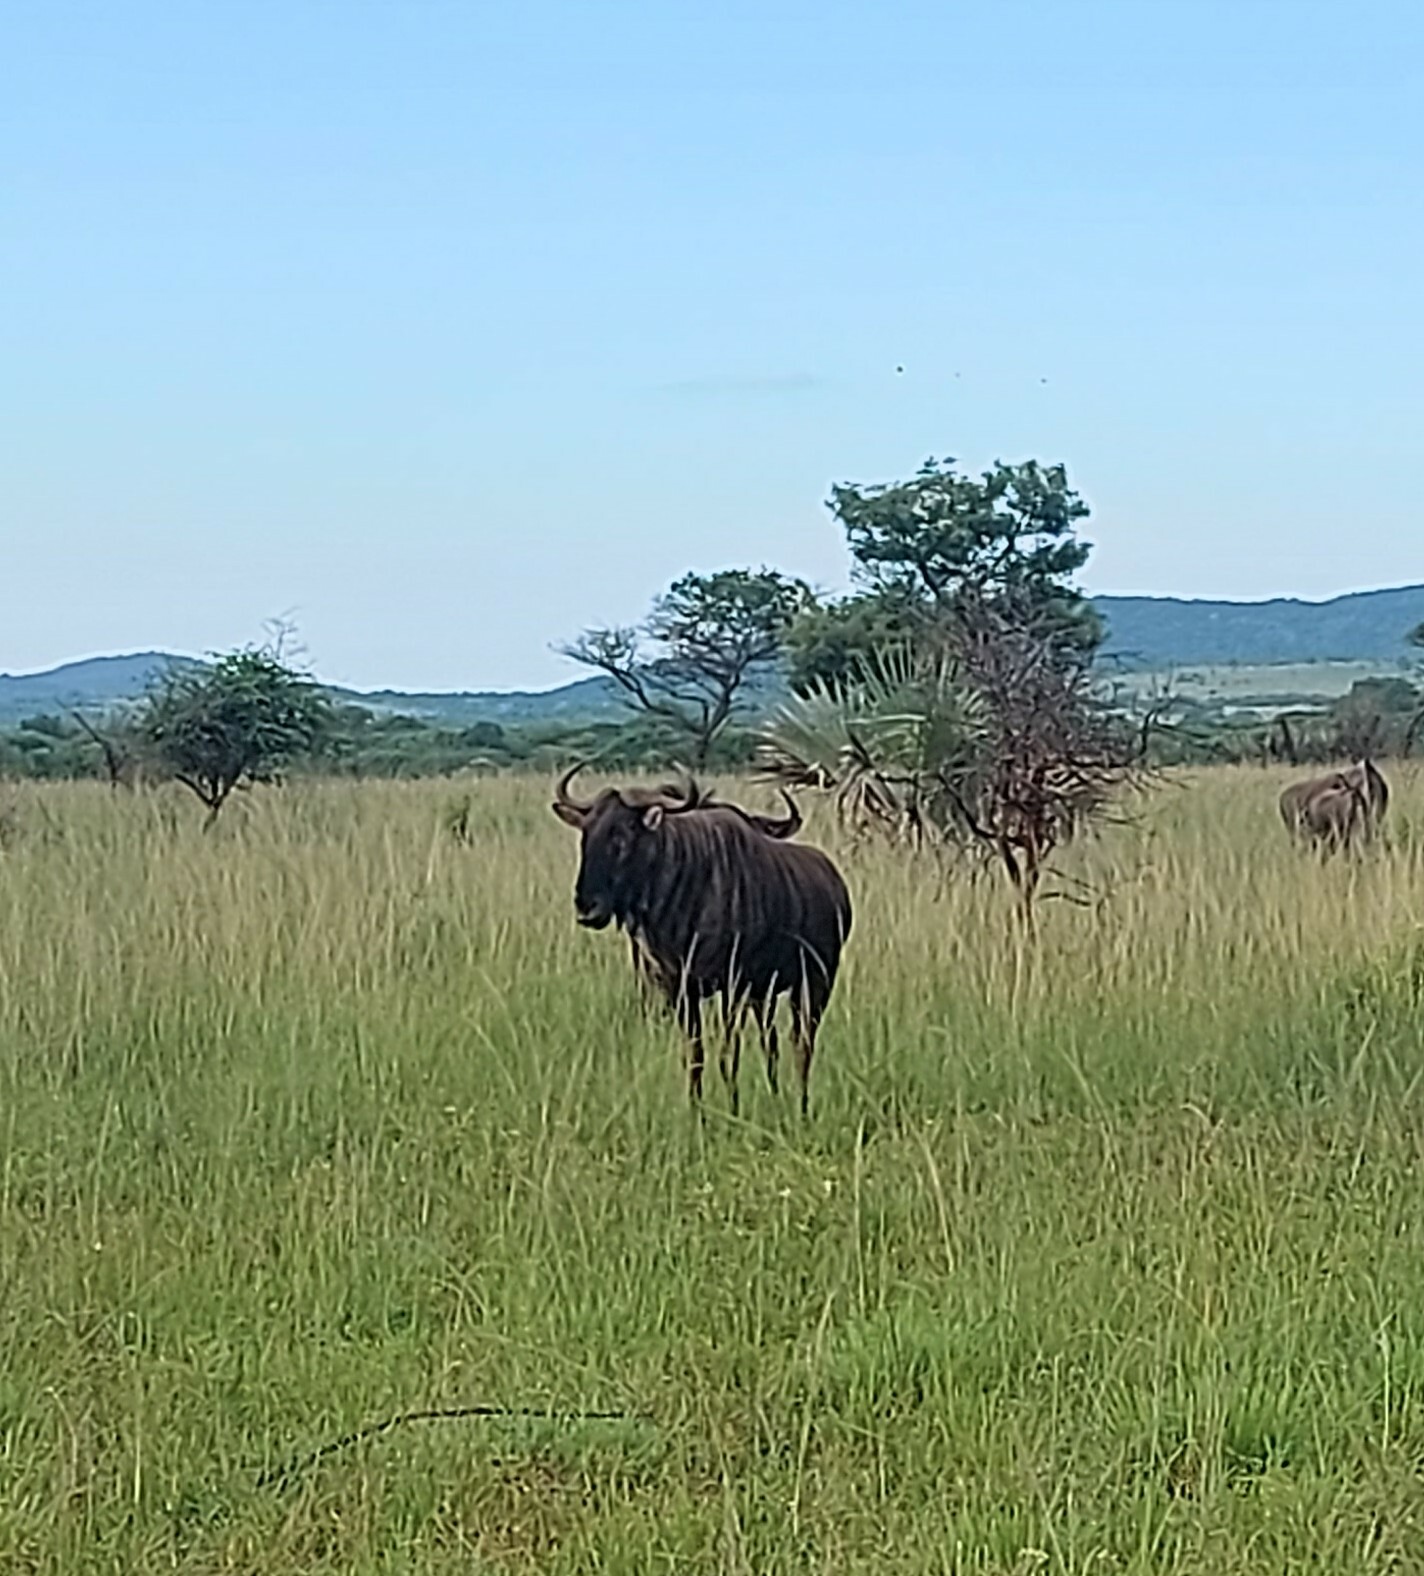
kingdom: Animalia
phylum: Chordata
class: Mammalia
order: Artiodactyla
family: Bovidae
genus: Connochaetes
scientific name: Connochaetes taurinus
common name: Blue wildebeest
